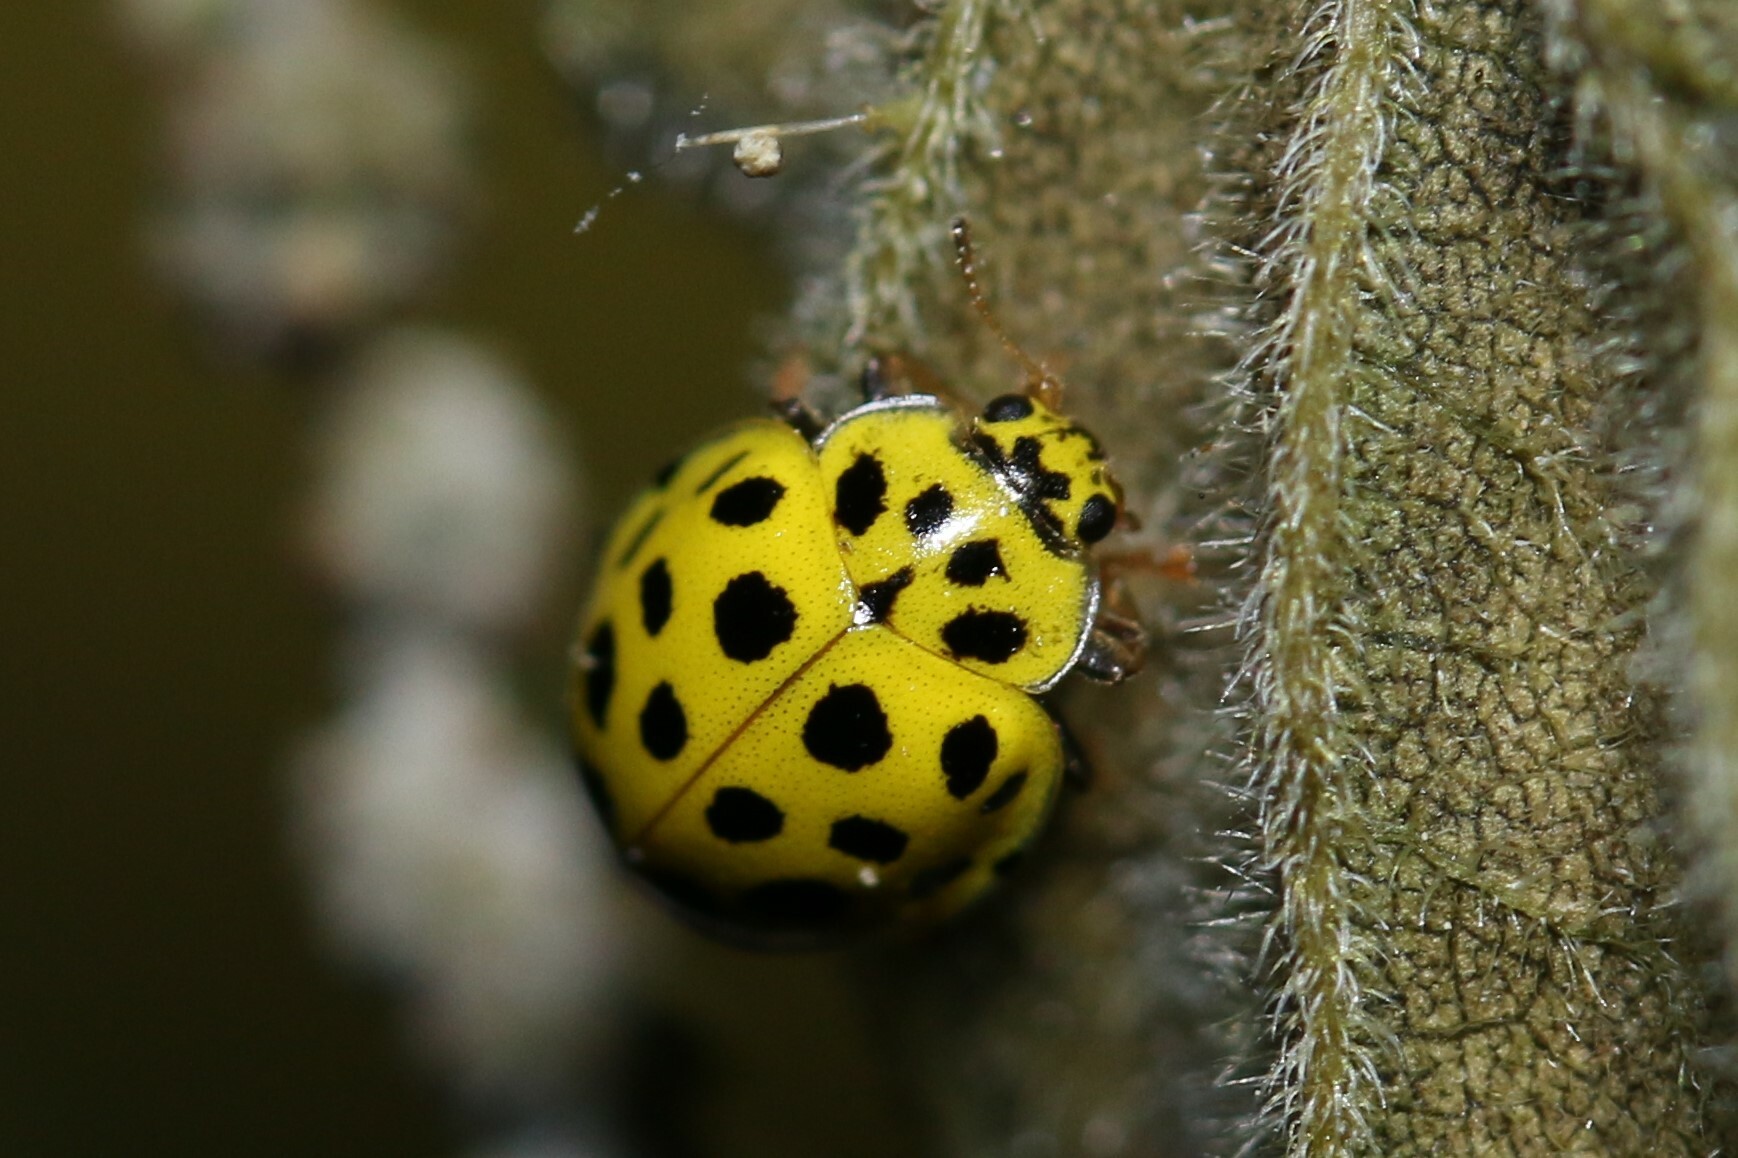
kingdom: Animalia
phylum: Arthropoda
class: Insecta
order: Coleoptera
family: Coccinellidae
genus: Psyllobora
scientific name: Psyllobora vigintiduopunctata
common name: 22-spot ladybird
